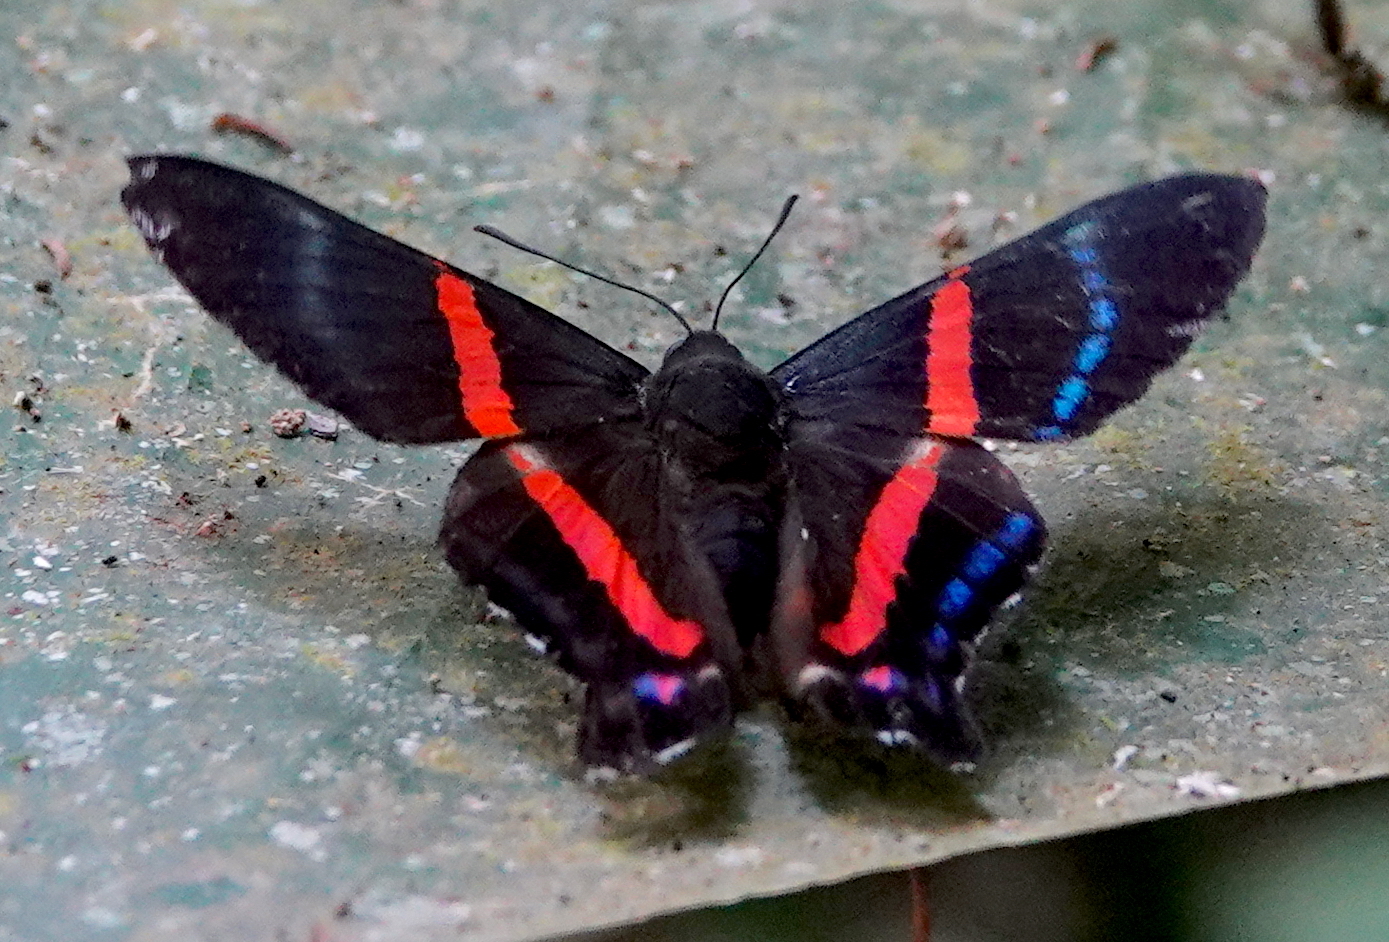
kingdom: Animalia
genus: Ancyluris
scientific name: Ancyluris jurgensenii
